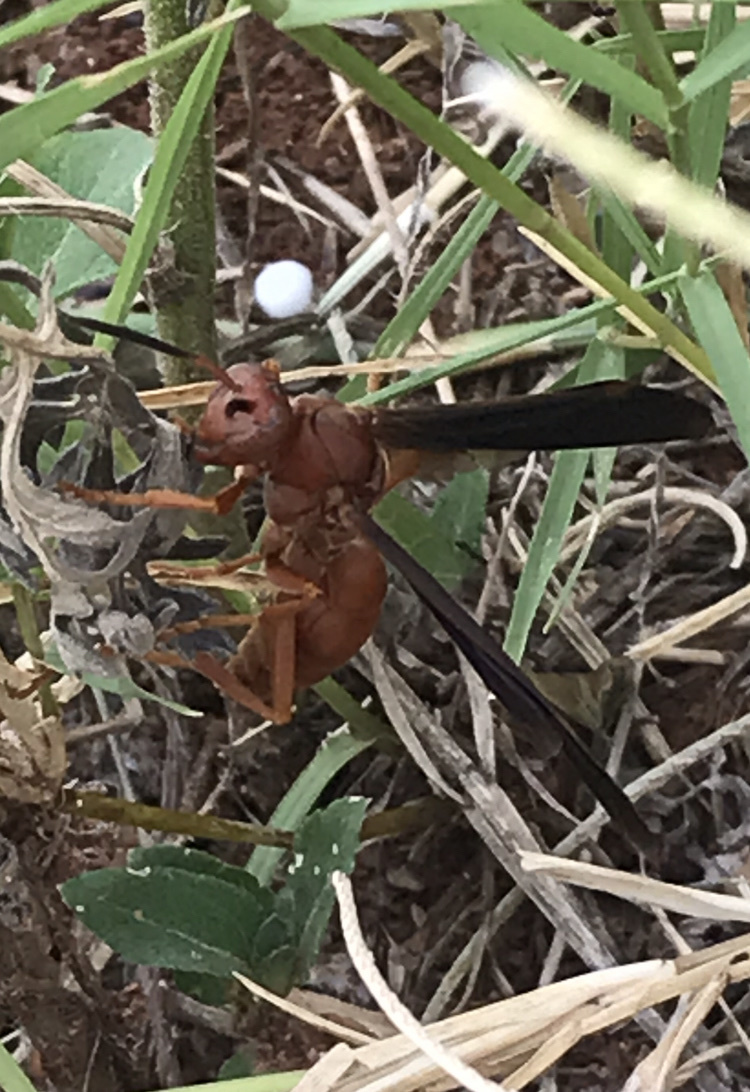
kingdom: Animalia
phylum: Arthropoda
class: Insecta
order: Hymenoptera
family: Vespidae
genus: Fuscopolistes
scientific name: Fuscopolistes
